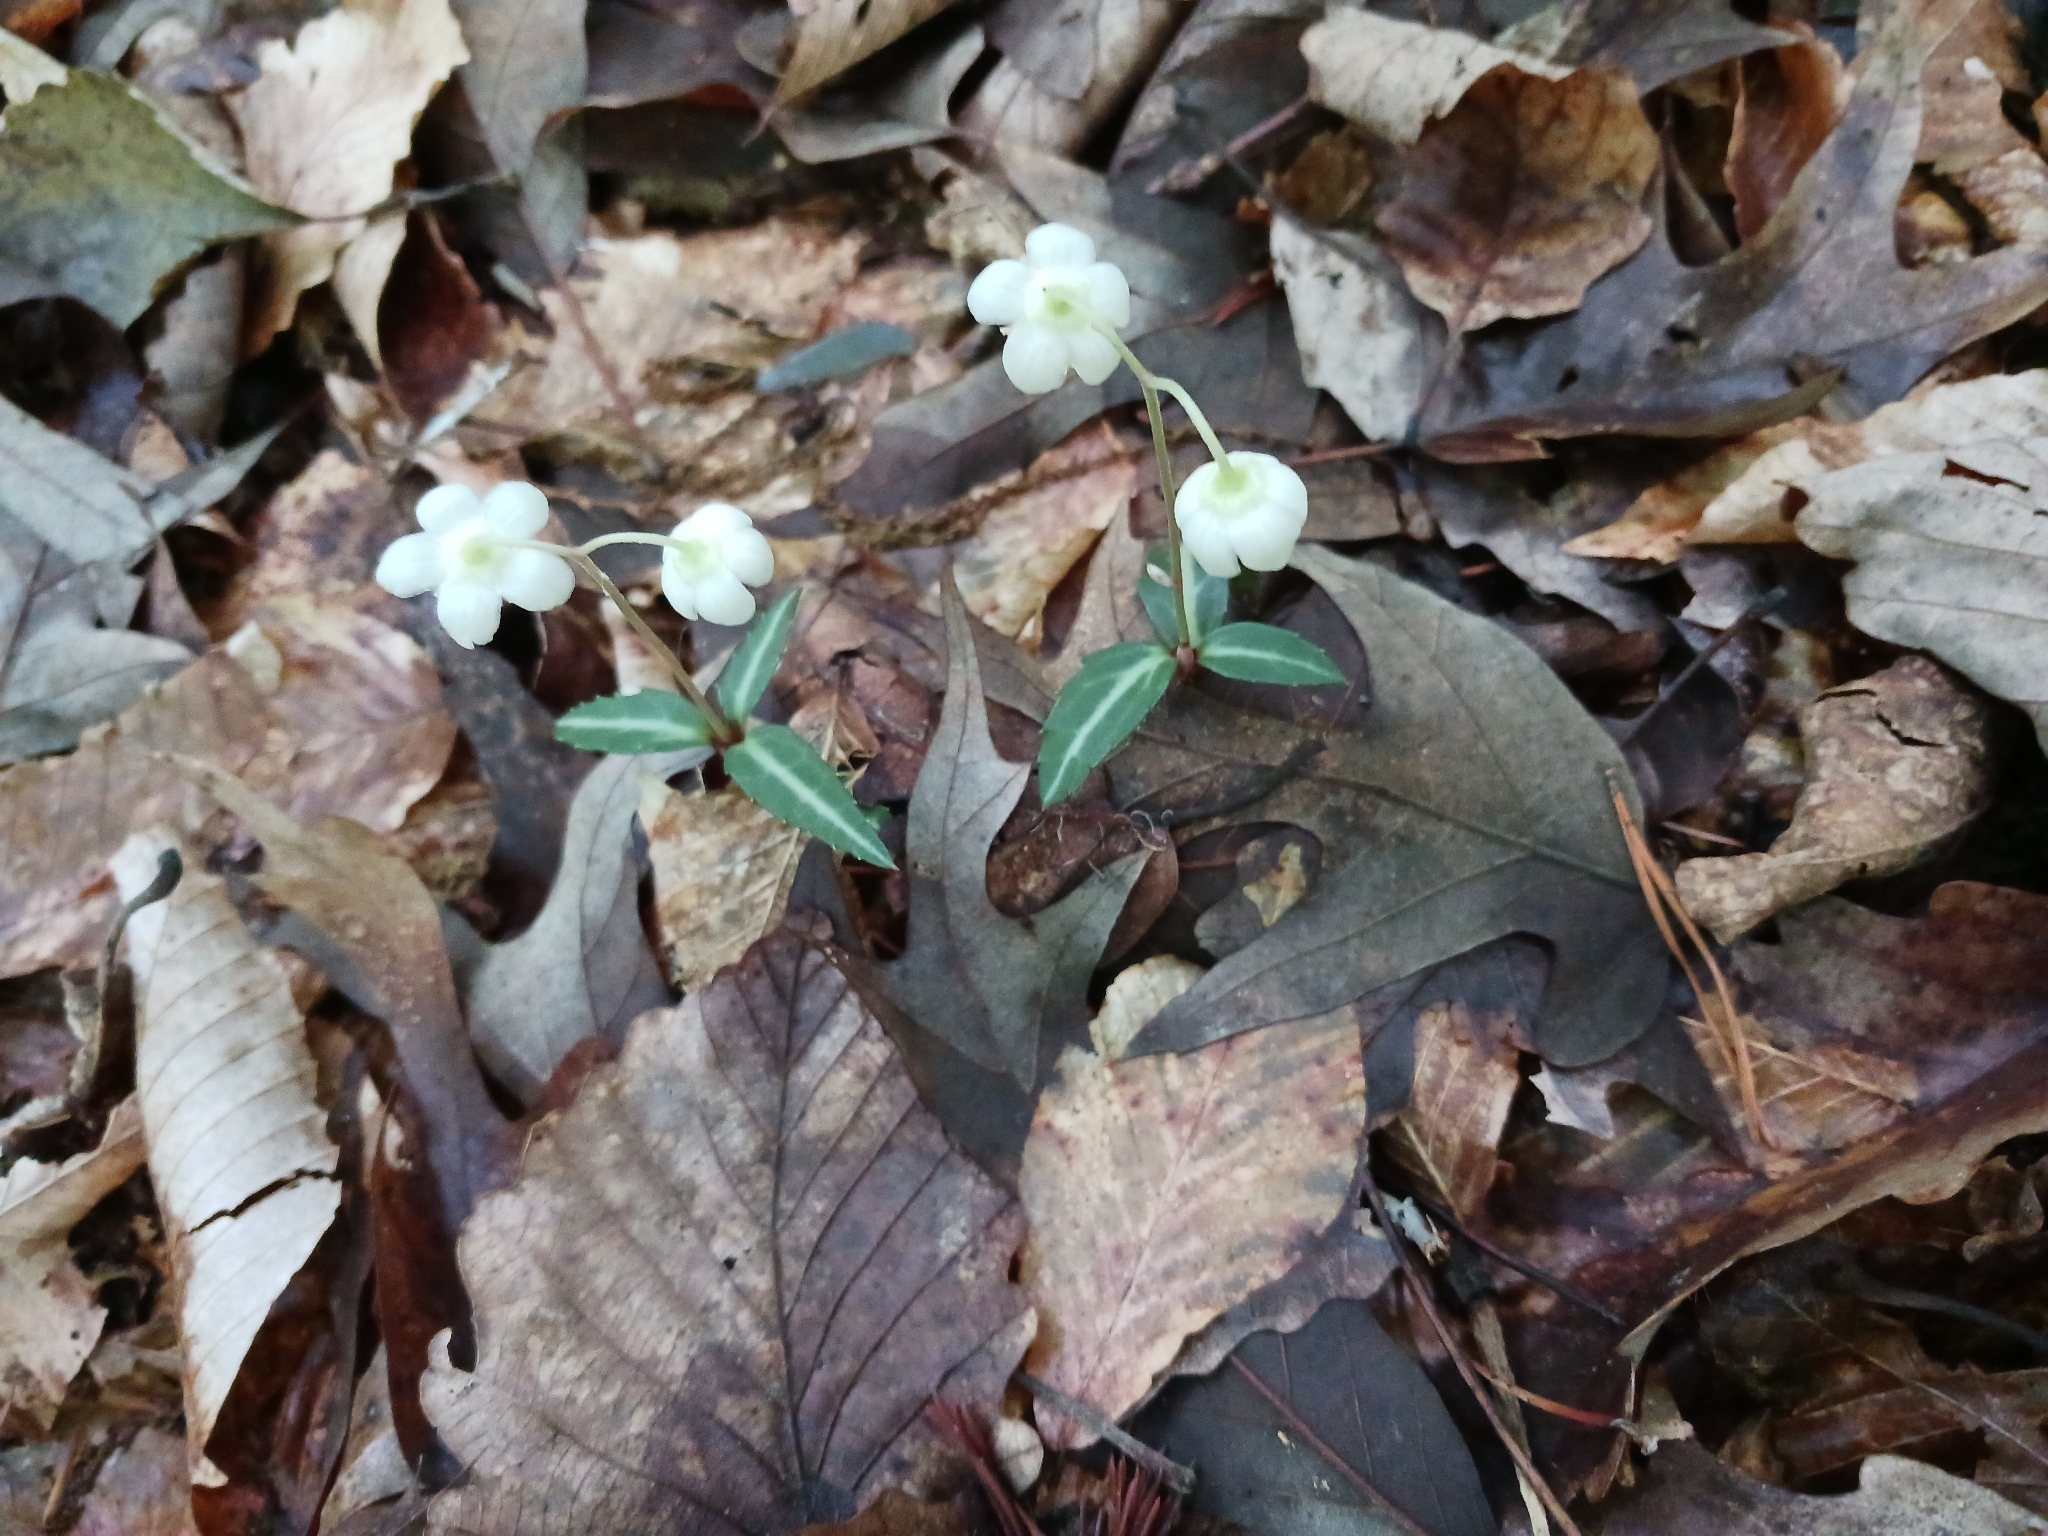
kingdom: Plantae
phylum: Tracheophyta
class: Magnoliopsida
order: Ericales
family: Ericaceae
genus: Chimaphila
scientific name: Chimaphila maculata
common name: Spotted pipsissewa
